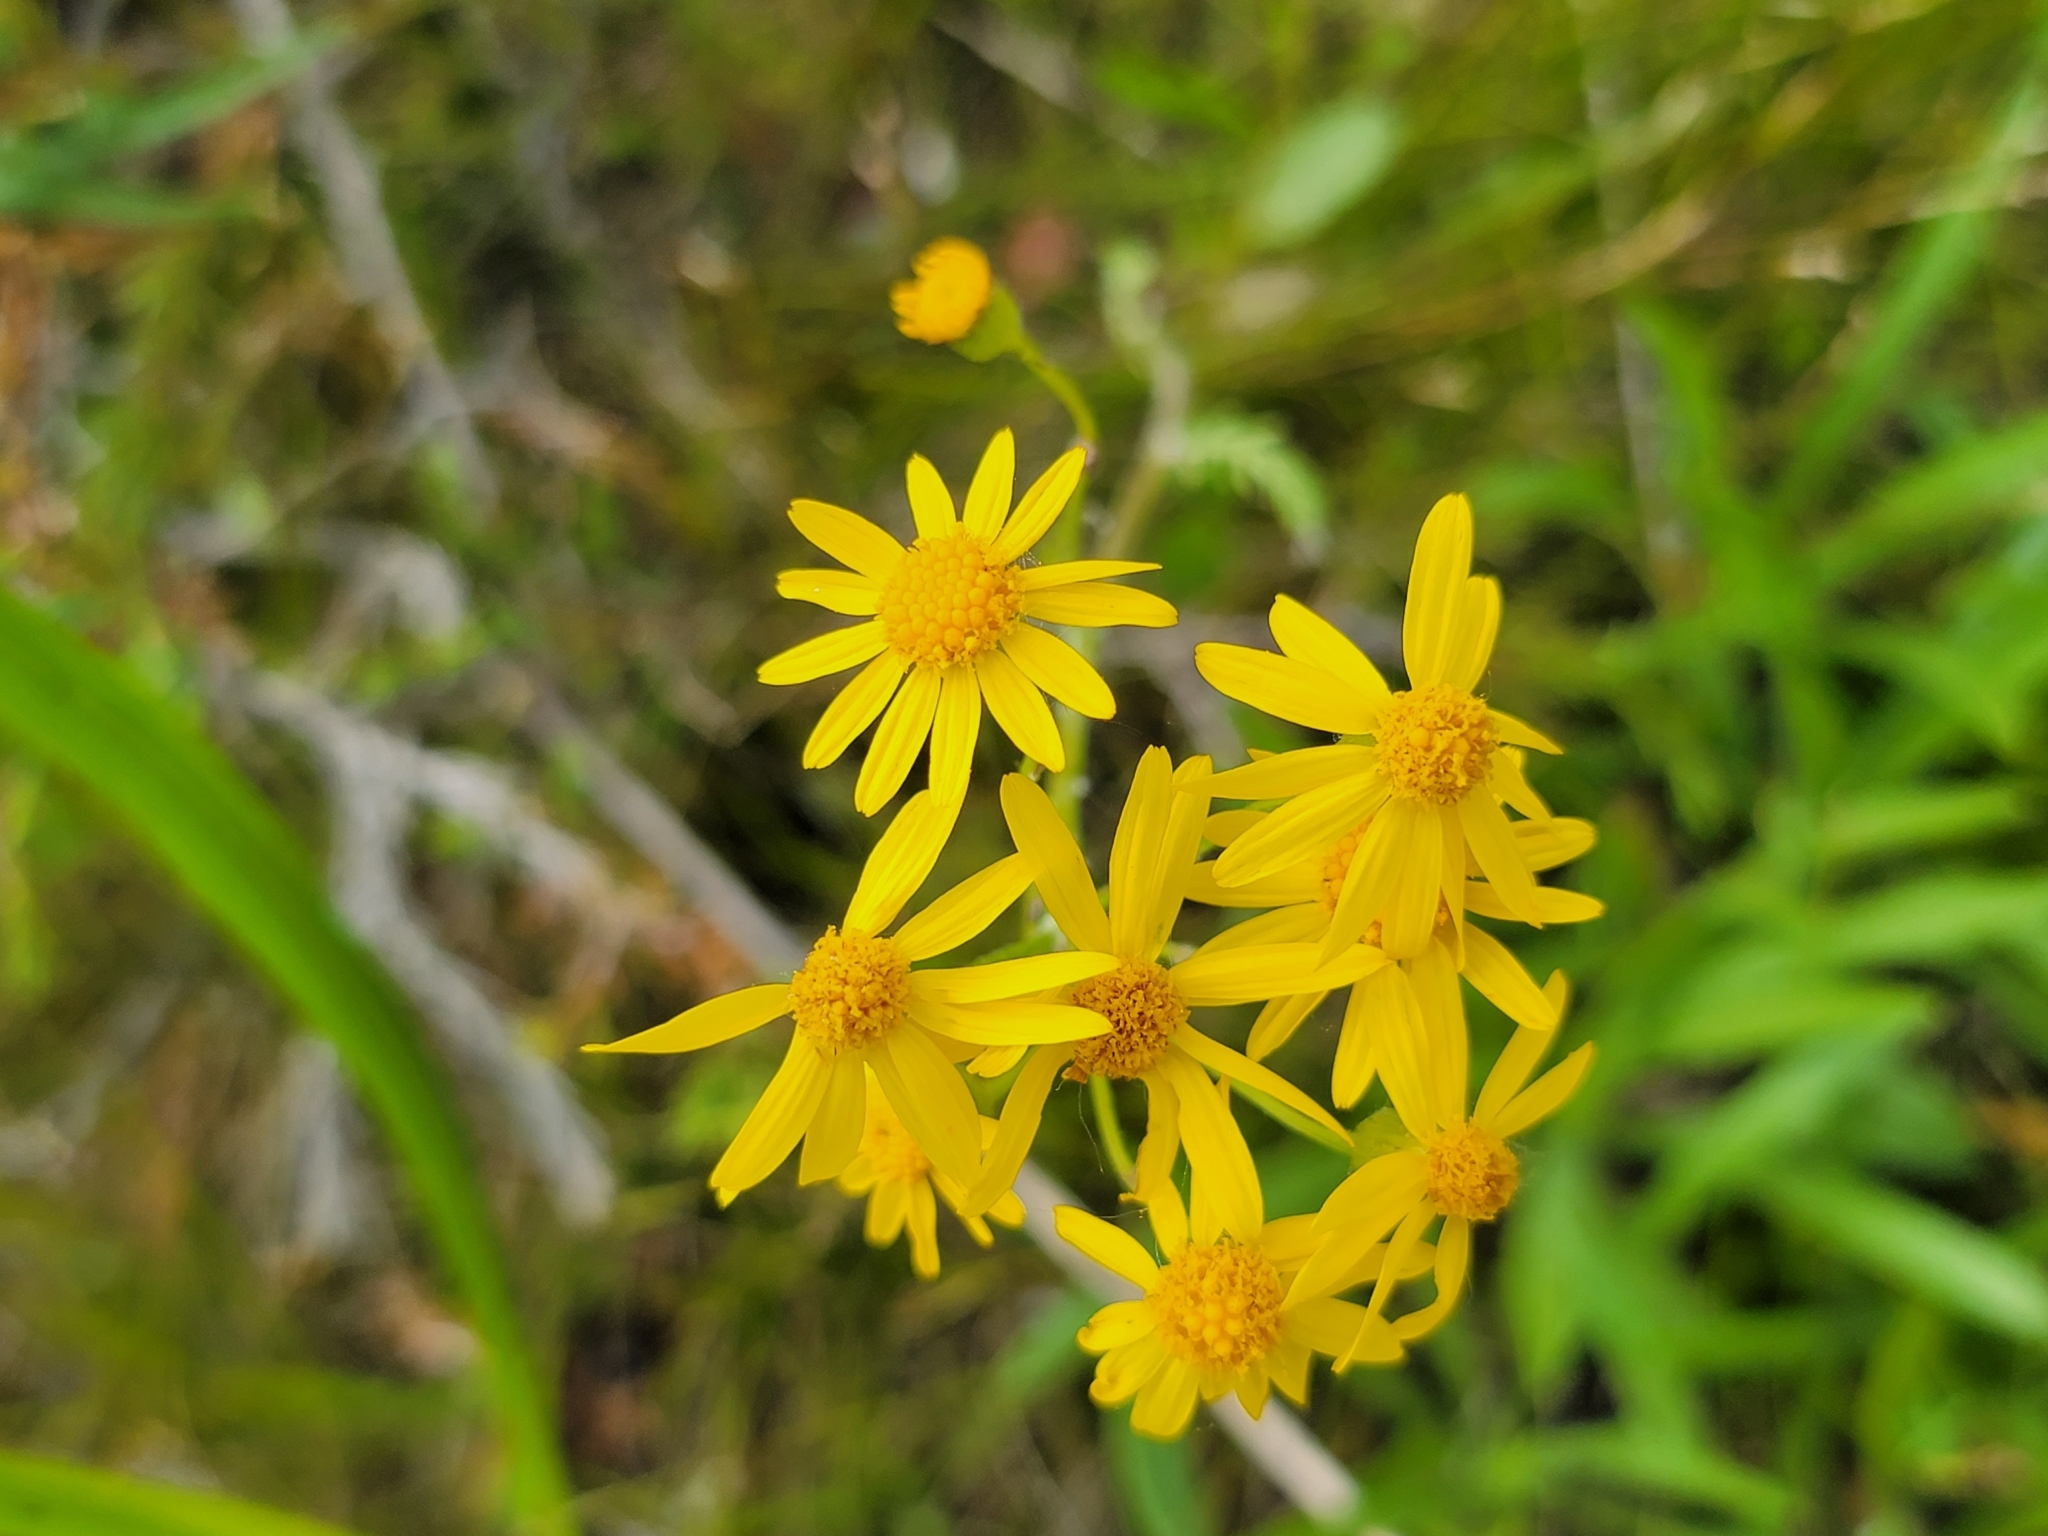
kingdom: Plantae
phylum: Tracheophyta
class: Magnoliopsida
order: Asterales
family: Asteraceae
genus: Packera
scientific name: Packera paupercula
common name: Balsam groundsel
